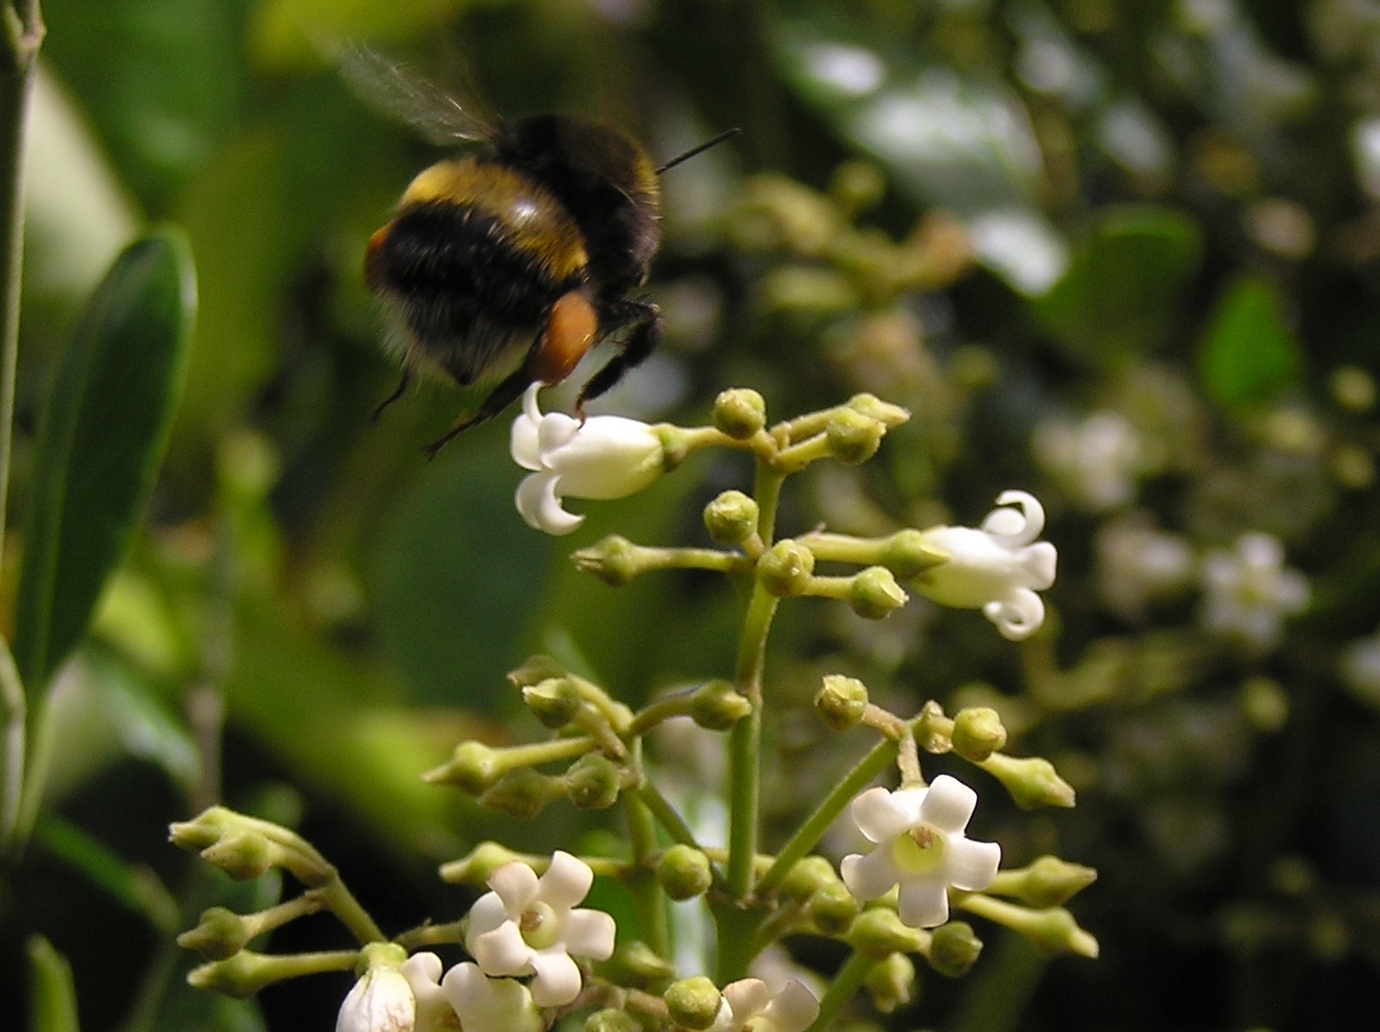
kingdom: Animalia
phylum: Arthropoda
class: Insecta
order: Hymenoptera
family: Apidae
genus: Bombus
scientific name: Bombus terrestris
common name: Buff-tailed bumblebee
